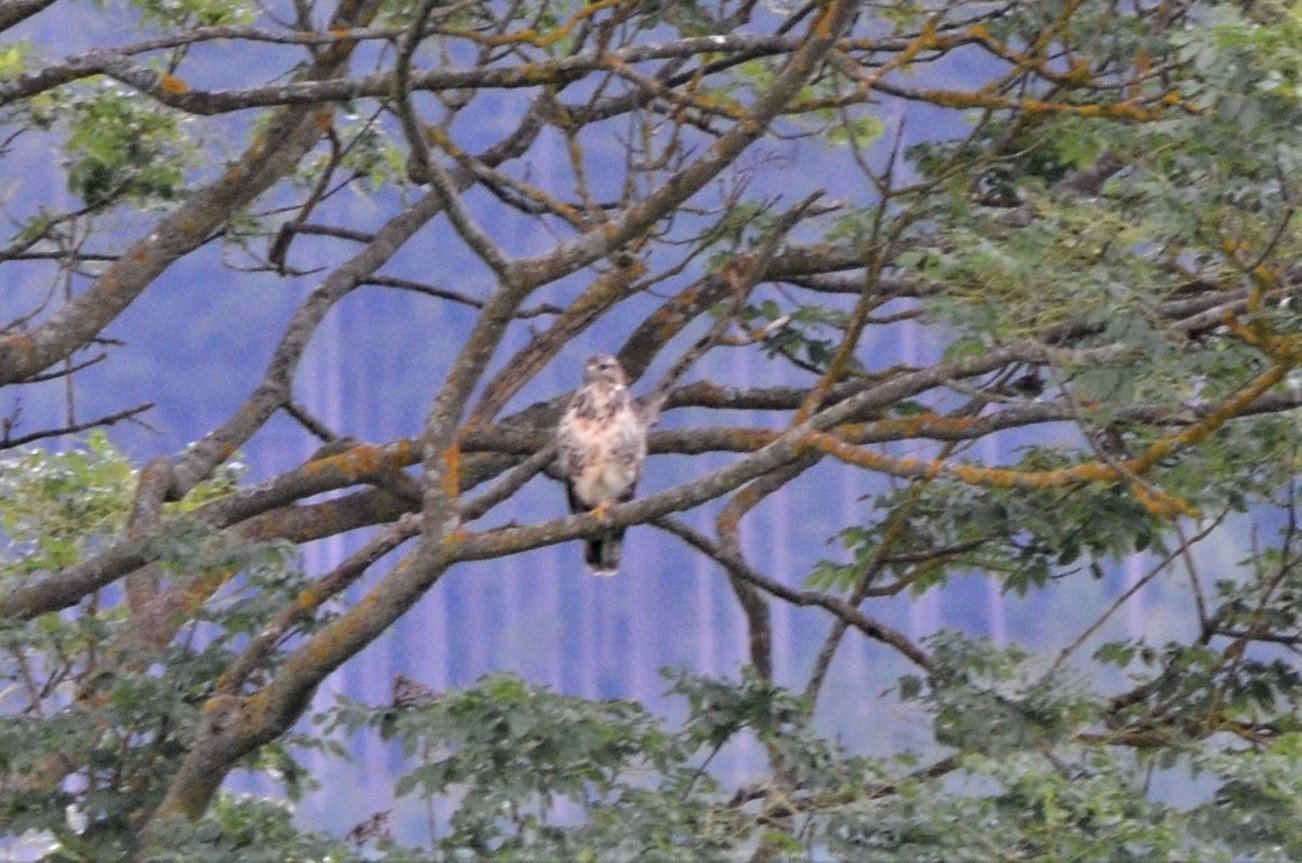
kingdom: Animalia
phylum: Chordata
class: Aves
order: Accipitriformes
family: Accipitridae
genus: Buteo
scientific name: Buteo buteo
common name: Common buzzard
